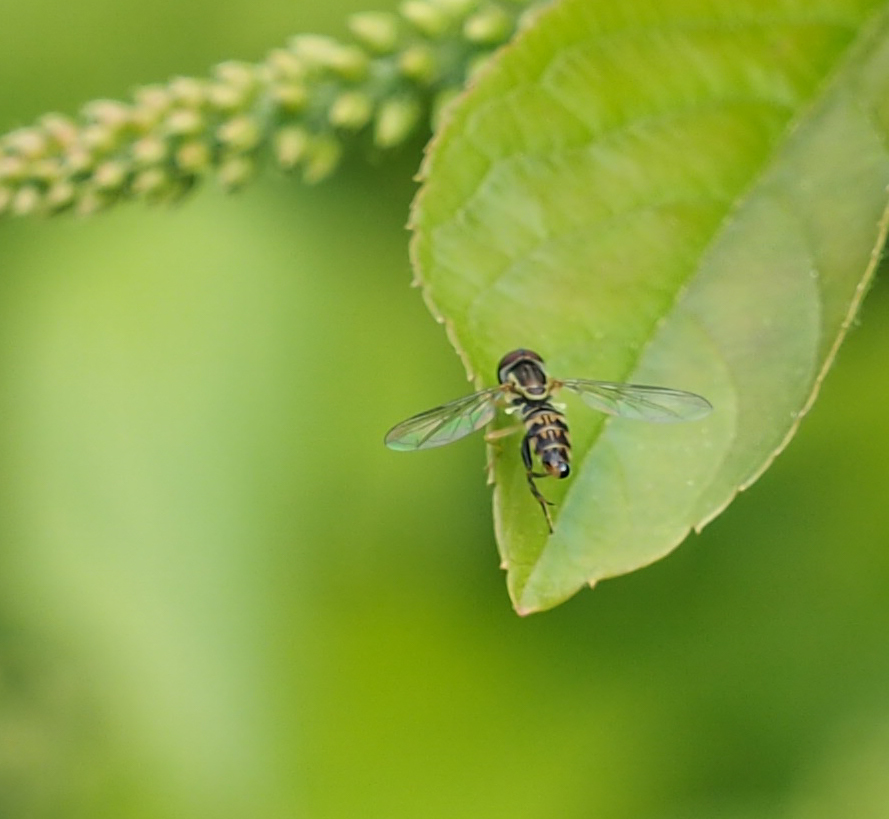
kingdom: Animalia
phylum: Arthropoda
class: Insecta
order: Diptera
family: Syrphidae
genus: Toxomerus
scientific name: Toxomerus geminatus
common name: Eastern calligrapher
